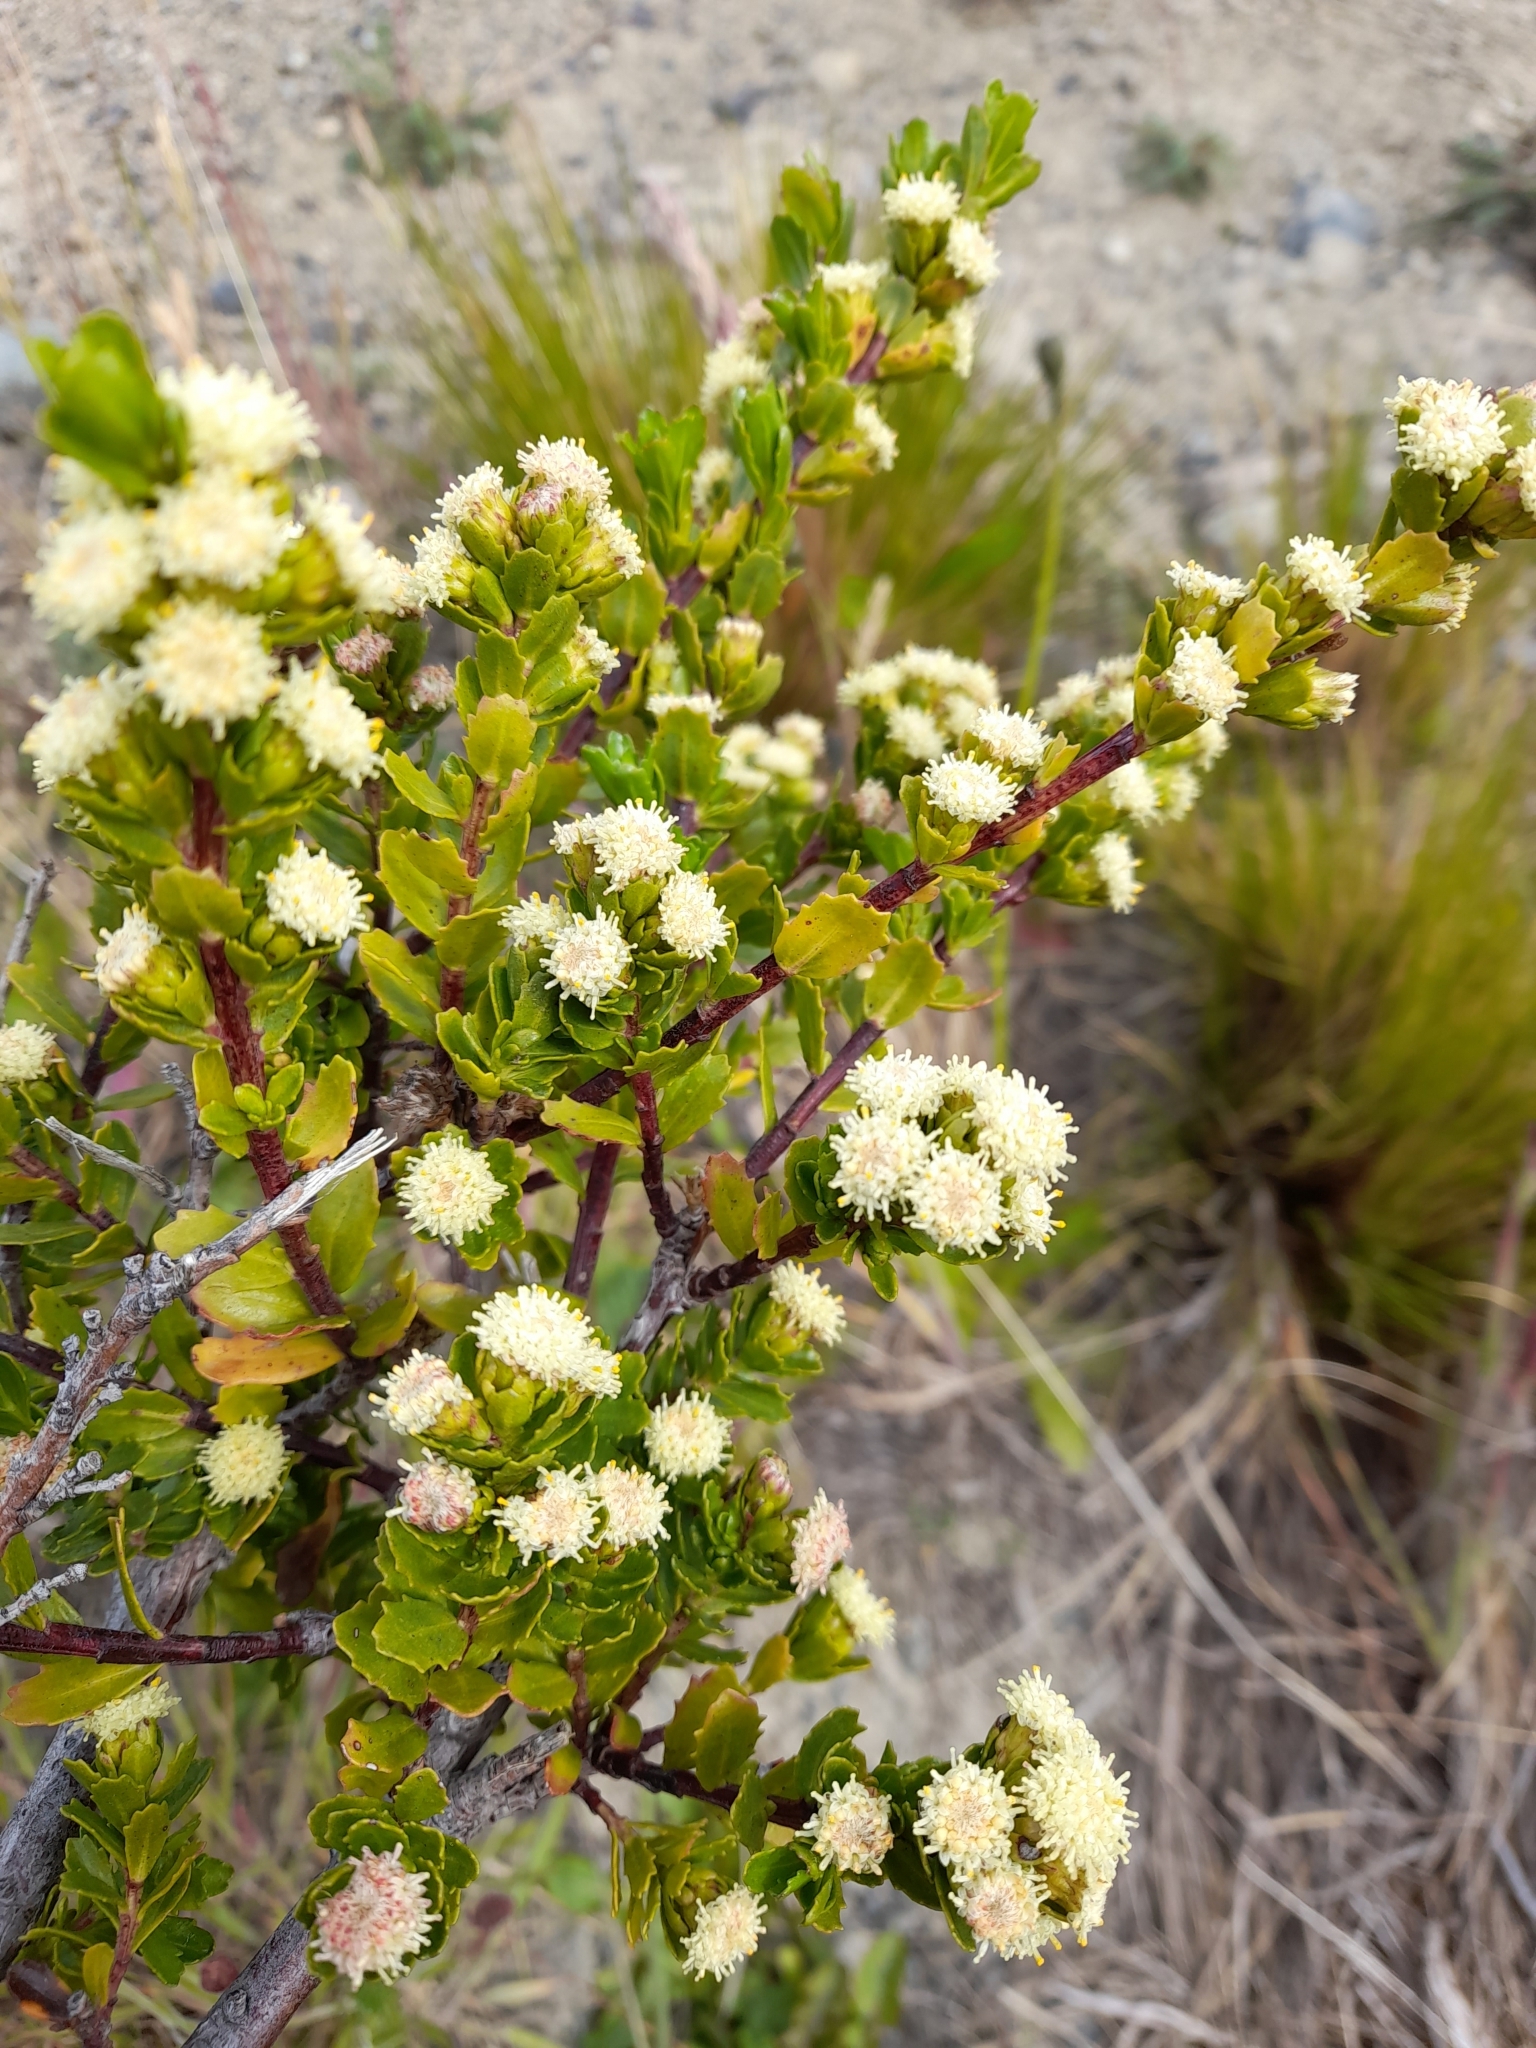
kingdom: Plantae
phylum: Tracheophyta
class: Magnoliopsida
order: Asterales
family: Asteraceae
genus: Baccharis
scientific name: Baccharis patagonica
